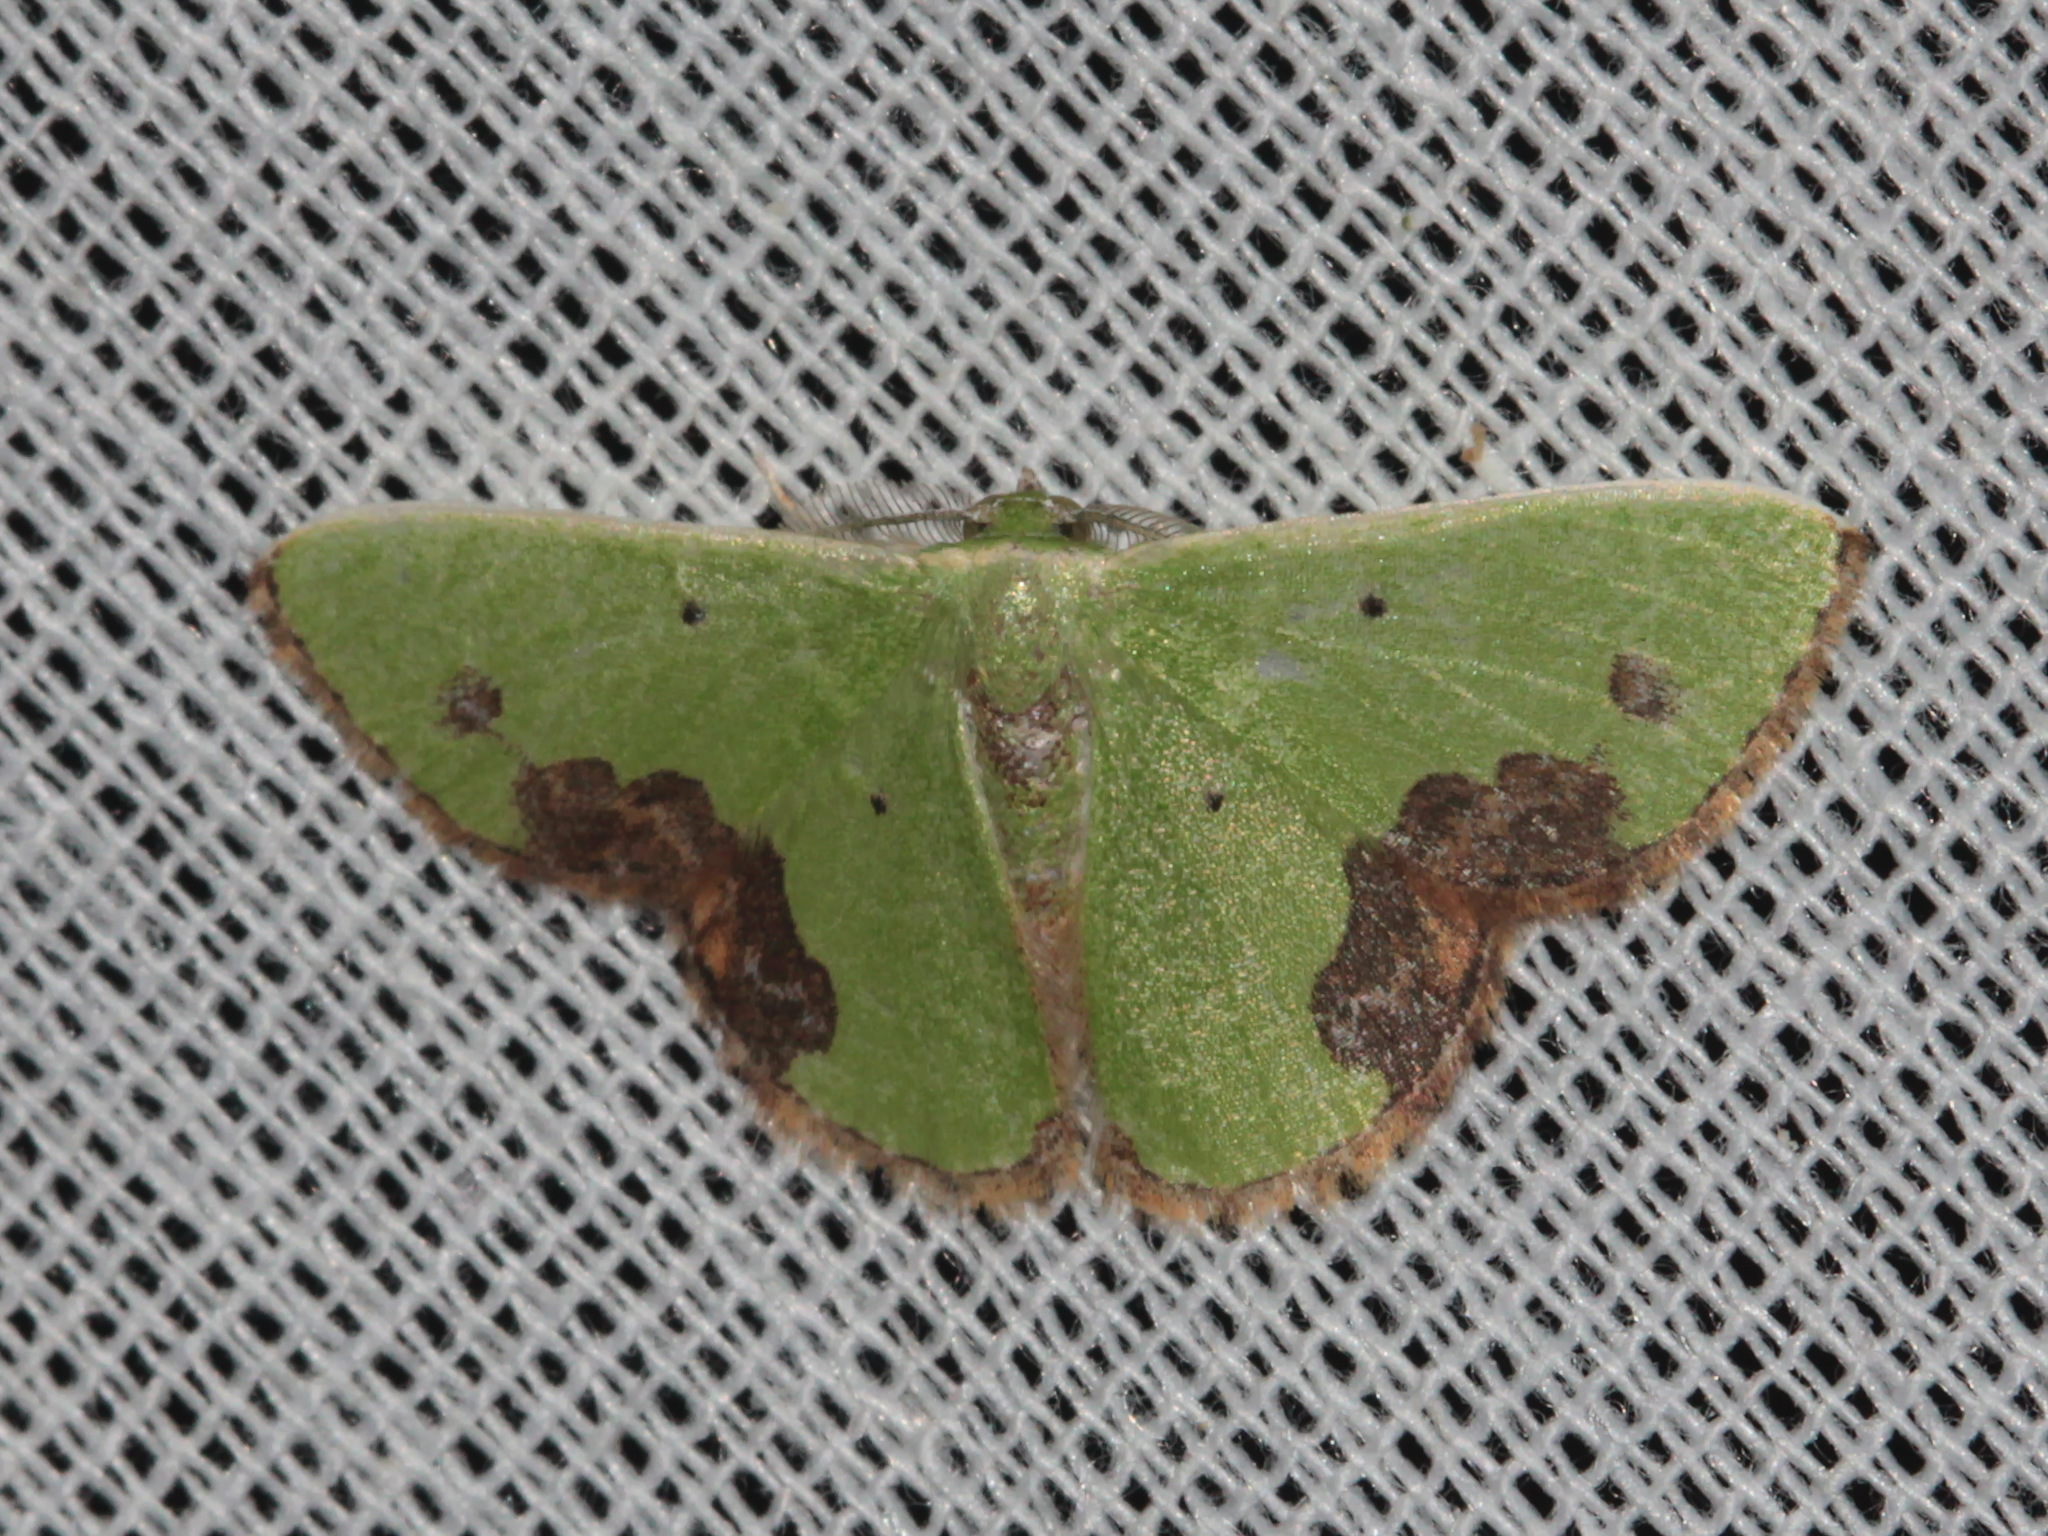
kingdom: Animalia
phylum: Arthropoda
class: Insecta
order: Lepidoptera
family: Geometridae
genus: Comibaena
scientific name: Comibaena attenuata
